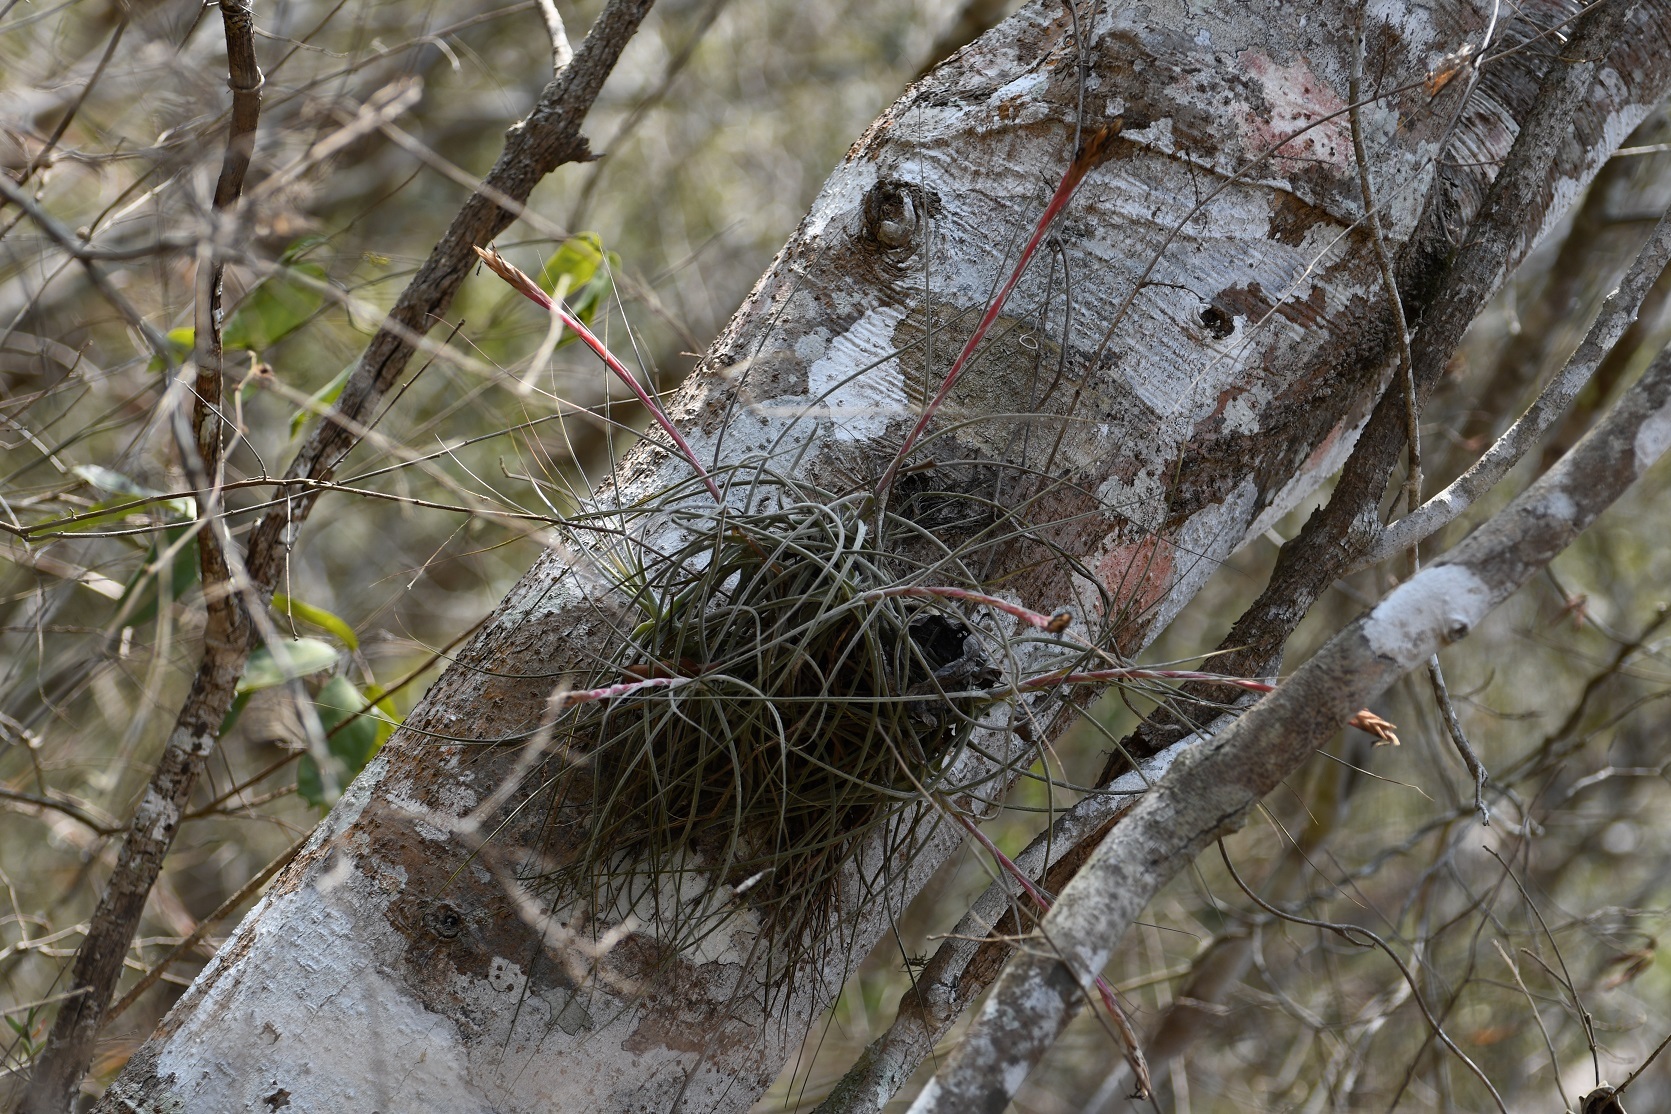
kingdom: Plantae
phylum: Tracheophyta
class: Liliopsida
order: Poales
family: Bromeliaceae
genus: Tillandsia
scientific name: Tillandsia schiedeana
